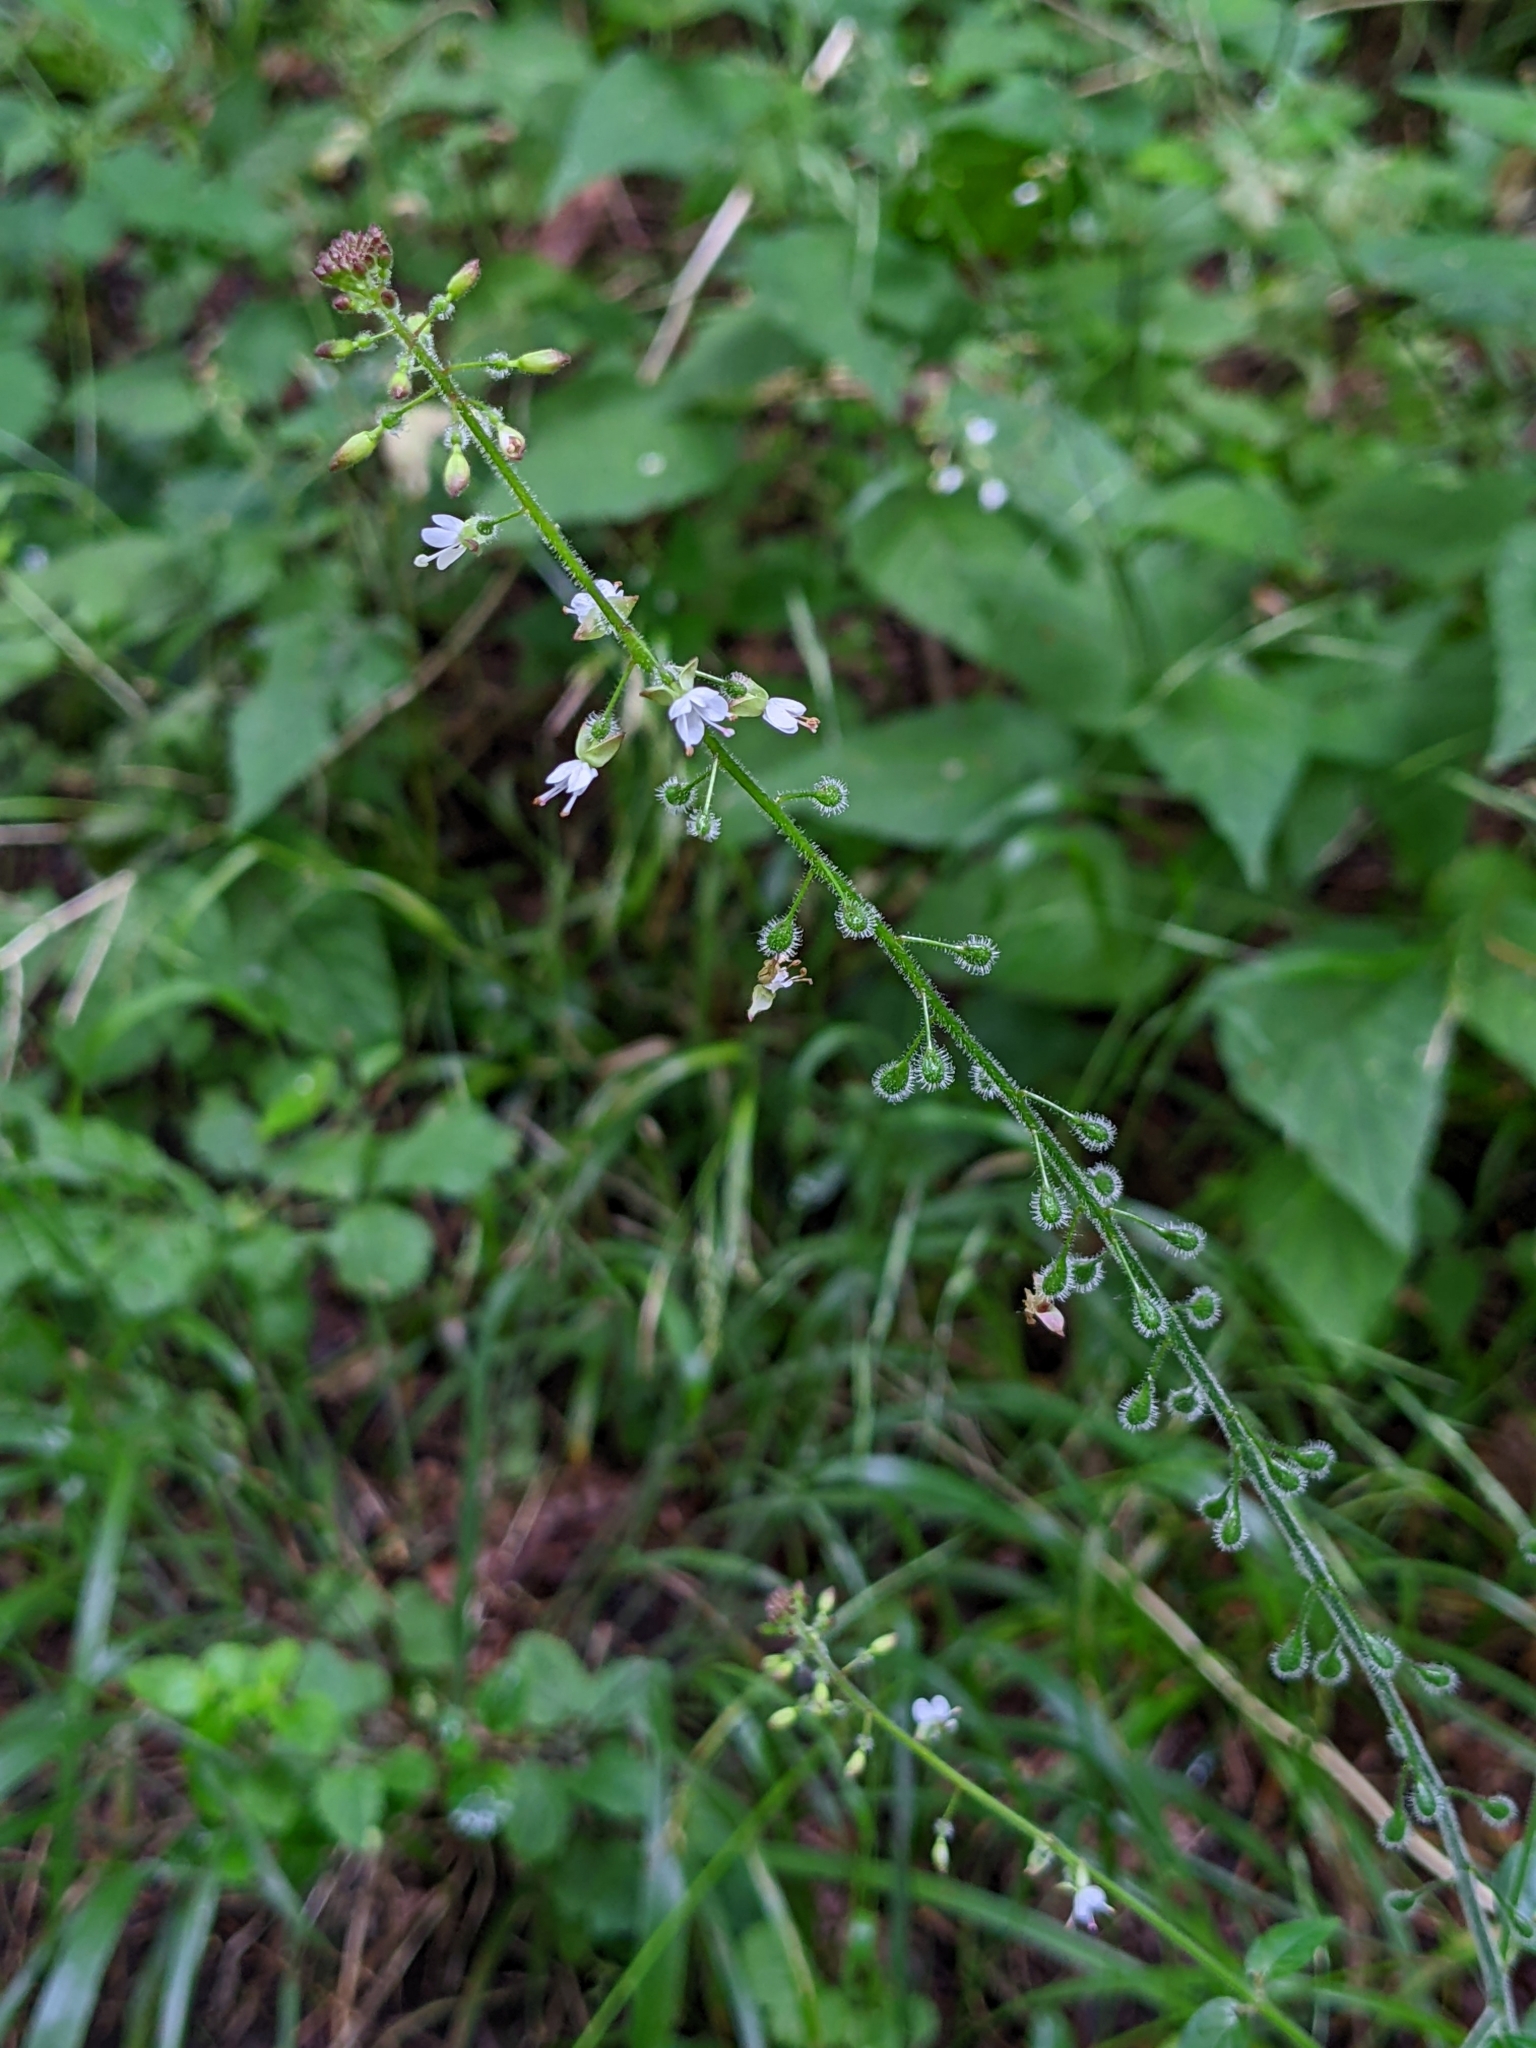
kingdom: Plantae
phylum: Tracheophyta
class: Magnoliopsida
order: Myrtales
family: Onagraceae
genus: Circaea
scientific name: Circaea lutetiana
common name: Enchanter's-nightshade
